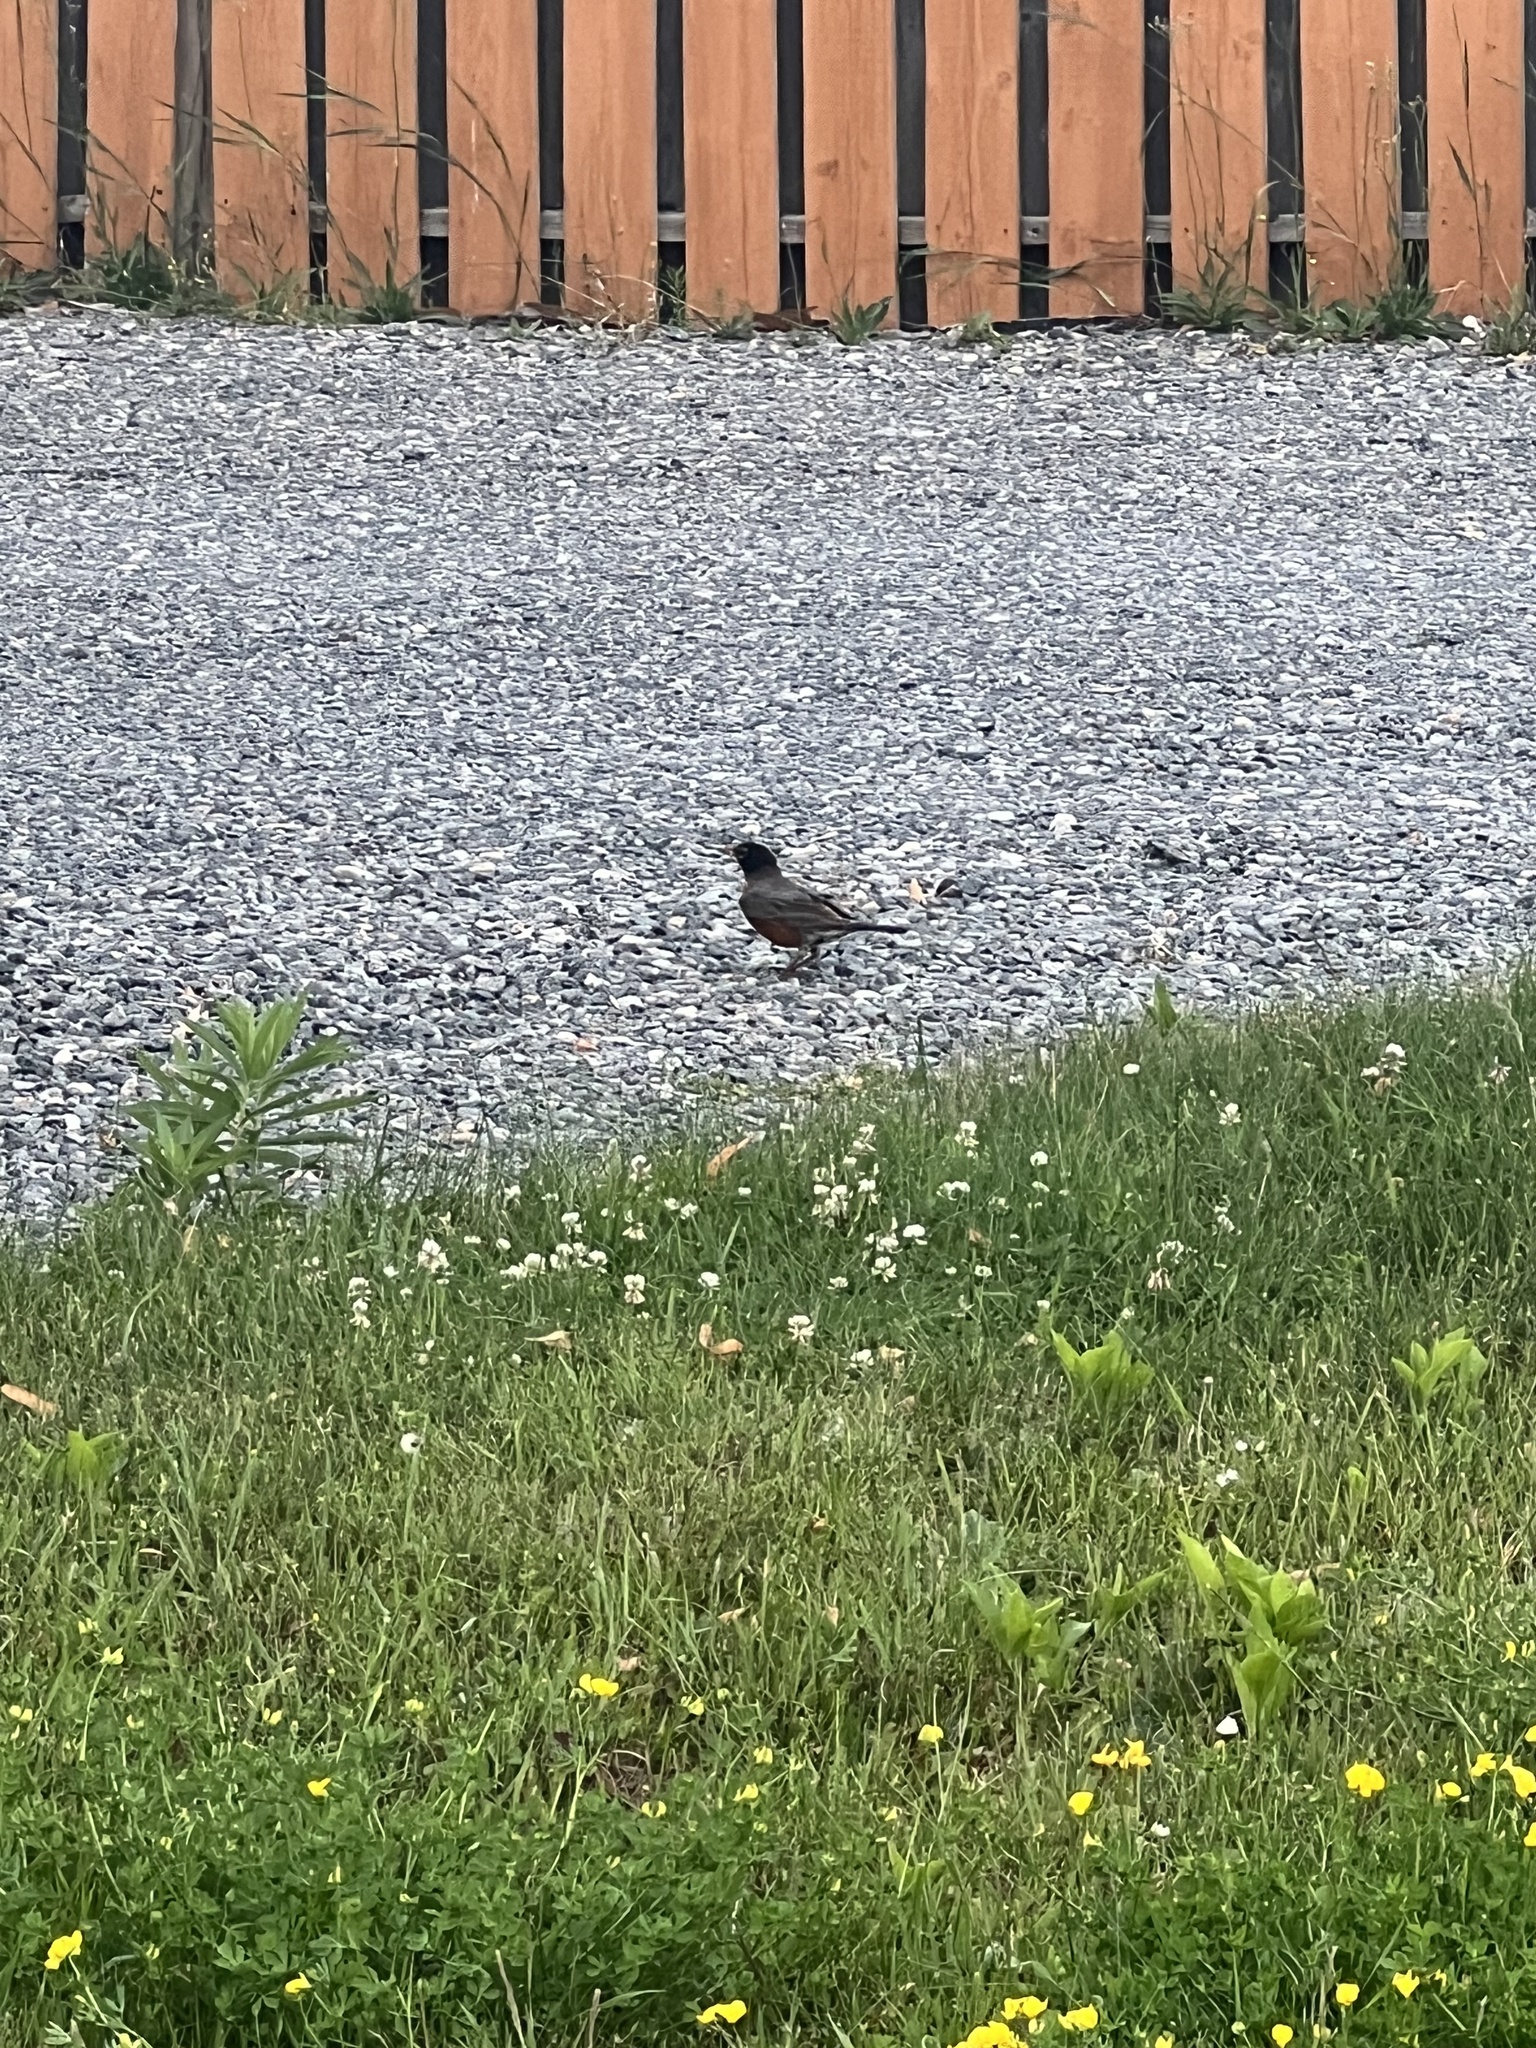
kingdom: Animalia
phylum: Chordata
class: Aves
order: Passeriformes
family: Turdidae
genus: Turdus
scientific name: Turdus migratorius
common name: American robin
